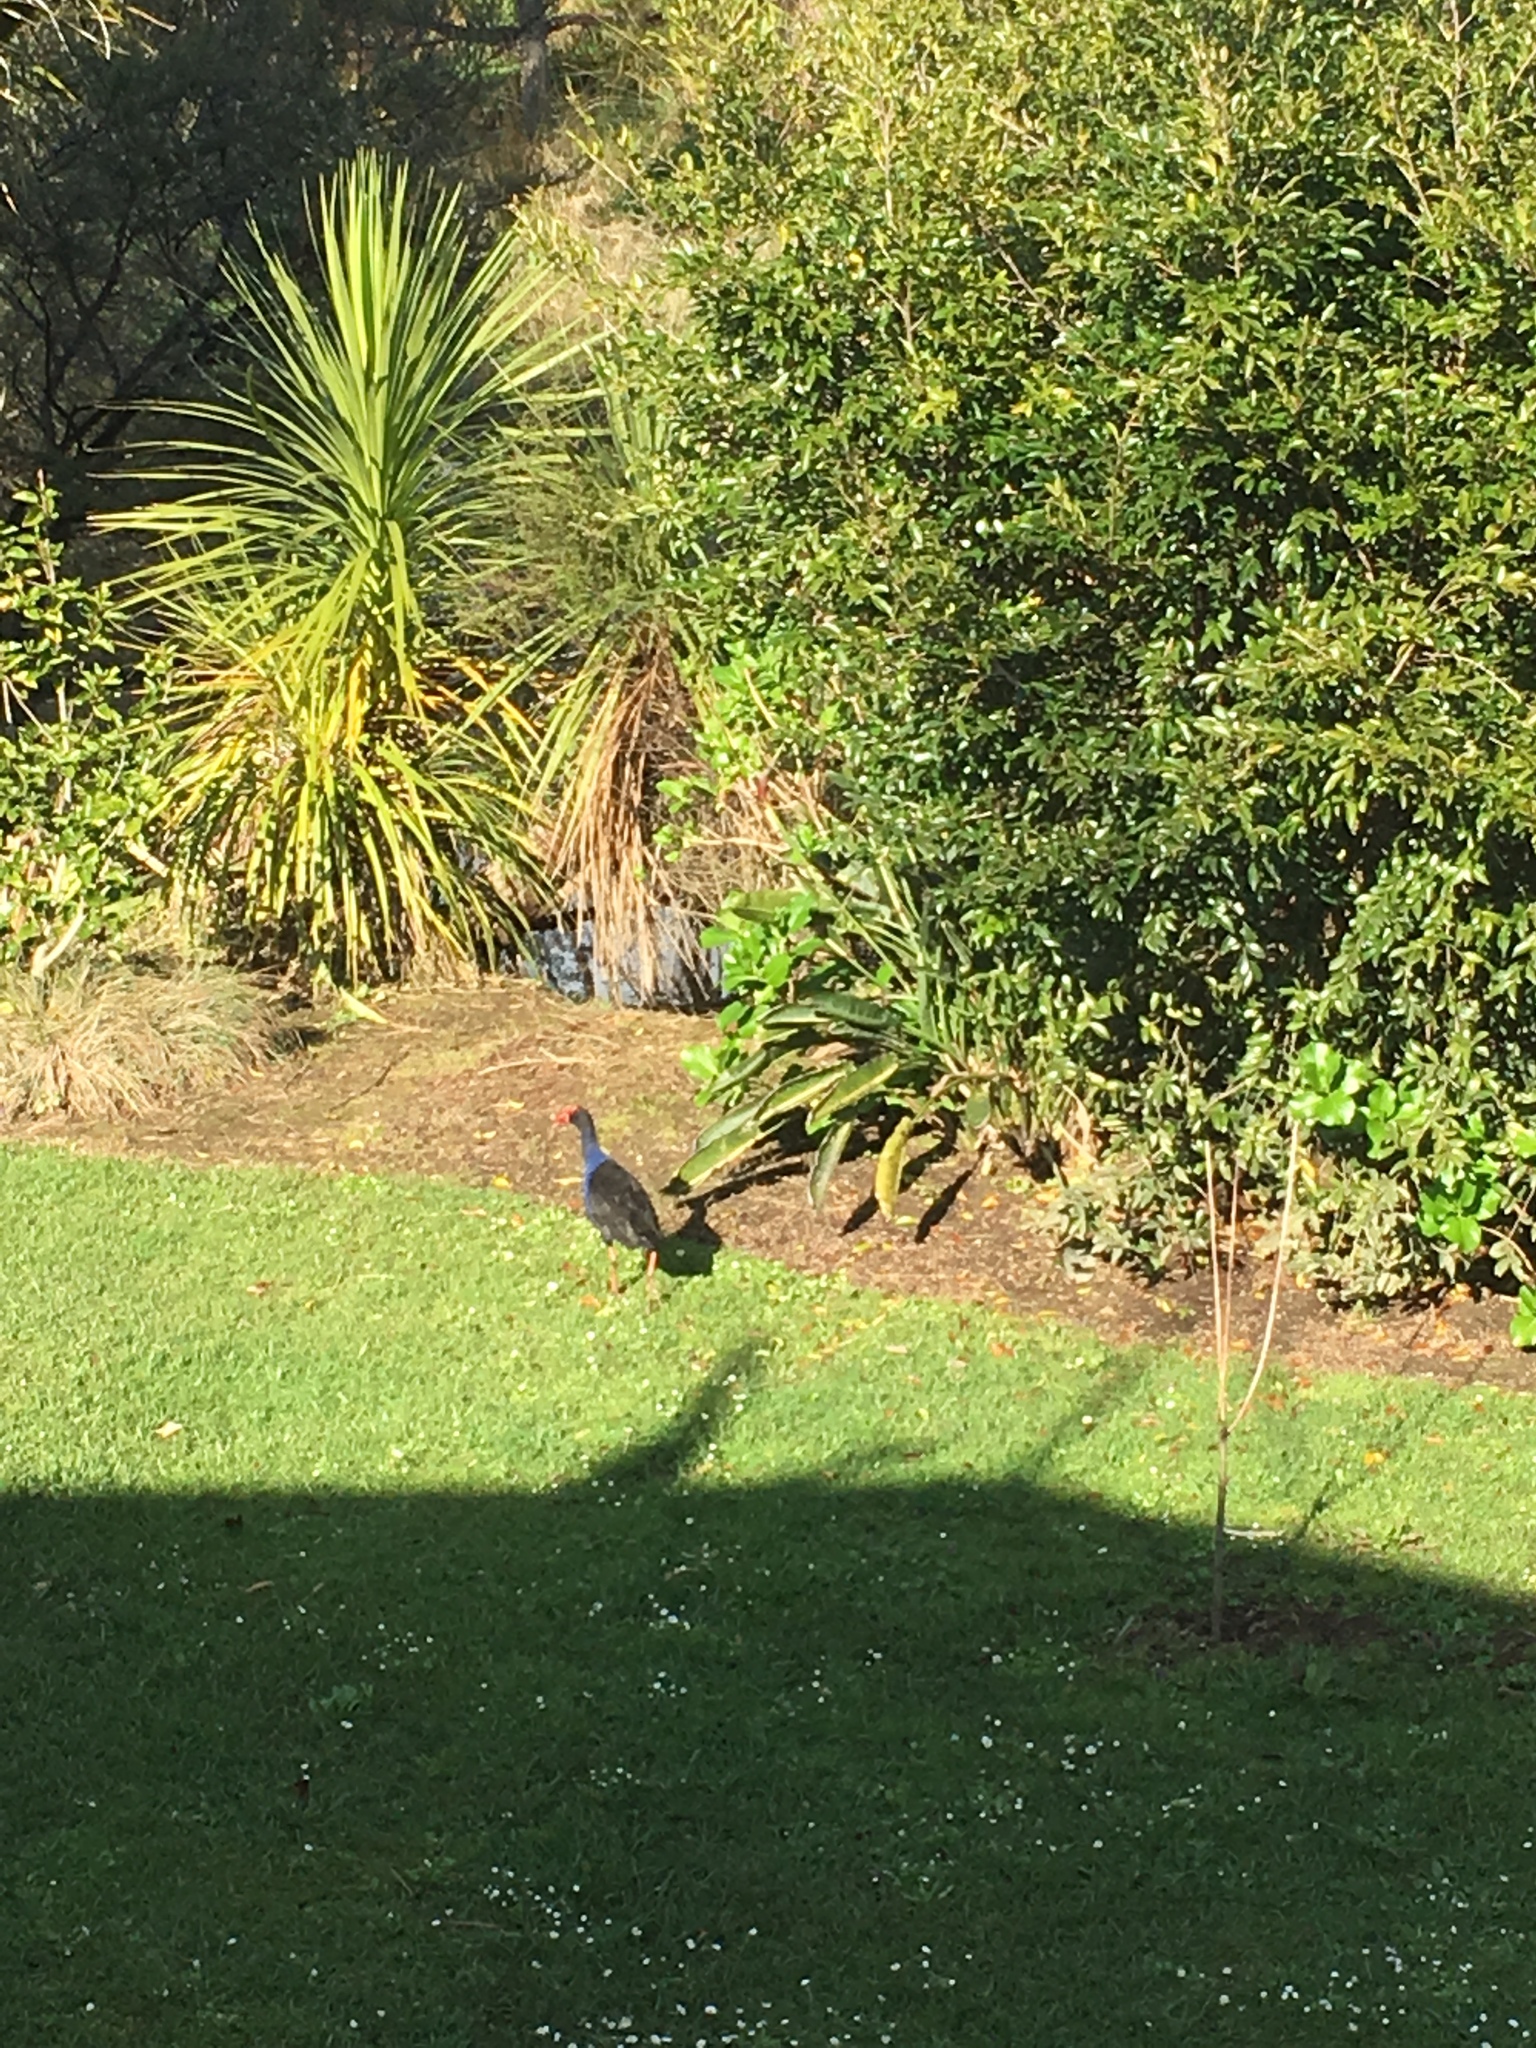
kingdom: Animalia
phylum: Chordata
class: Aves
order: Gruiformes
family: Rallidae
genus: Porphyrio
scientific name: Porphyrio melanotus
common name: Australasian swamphen
